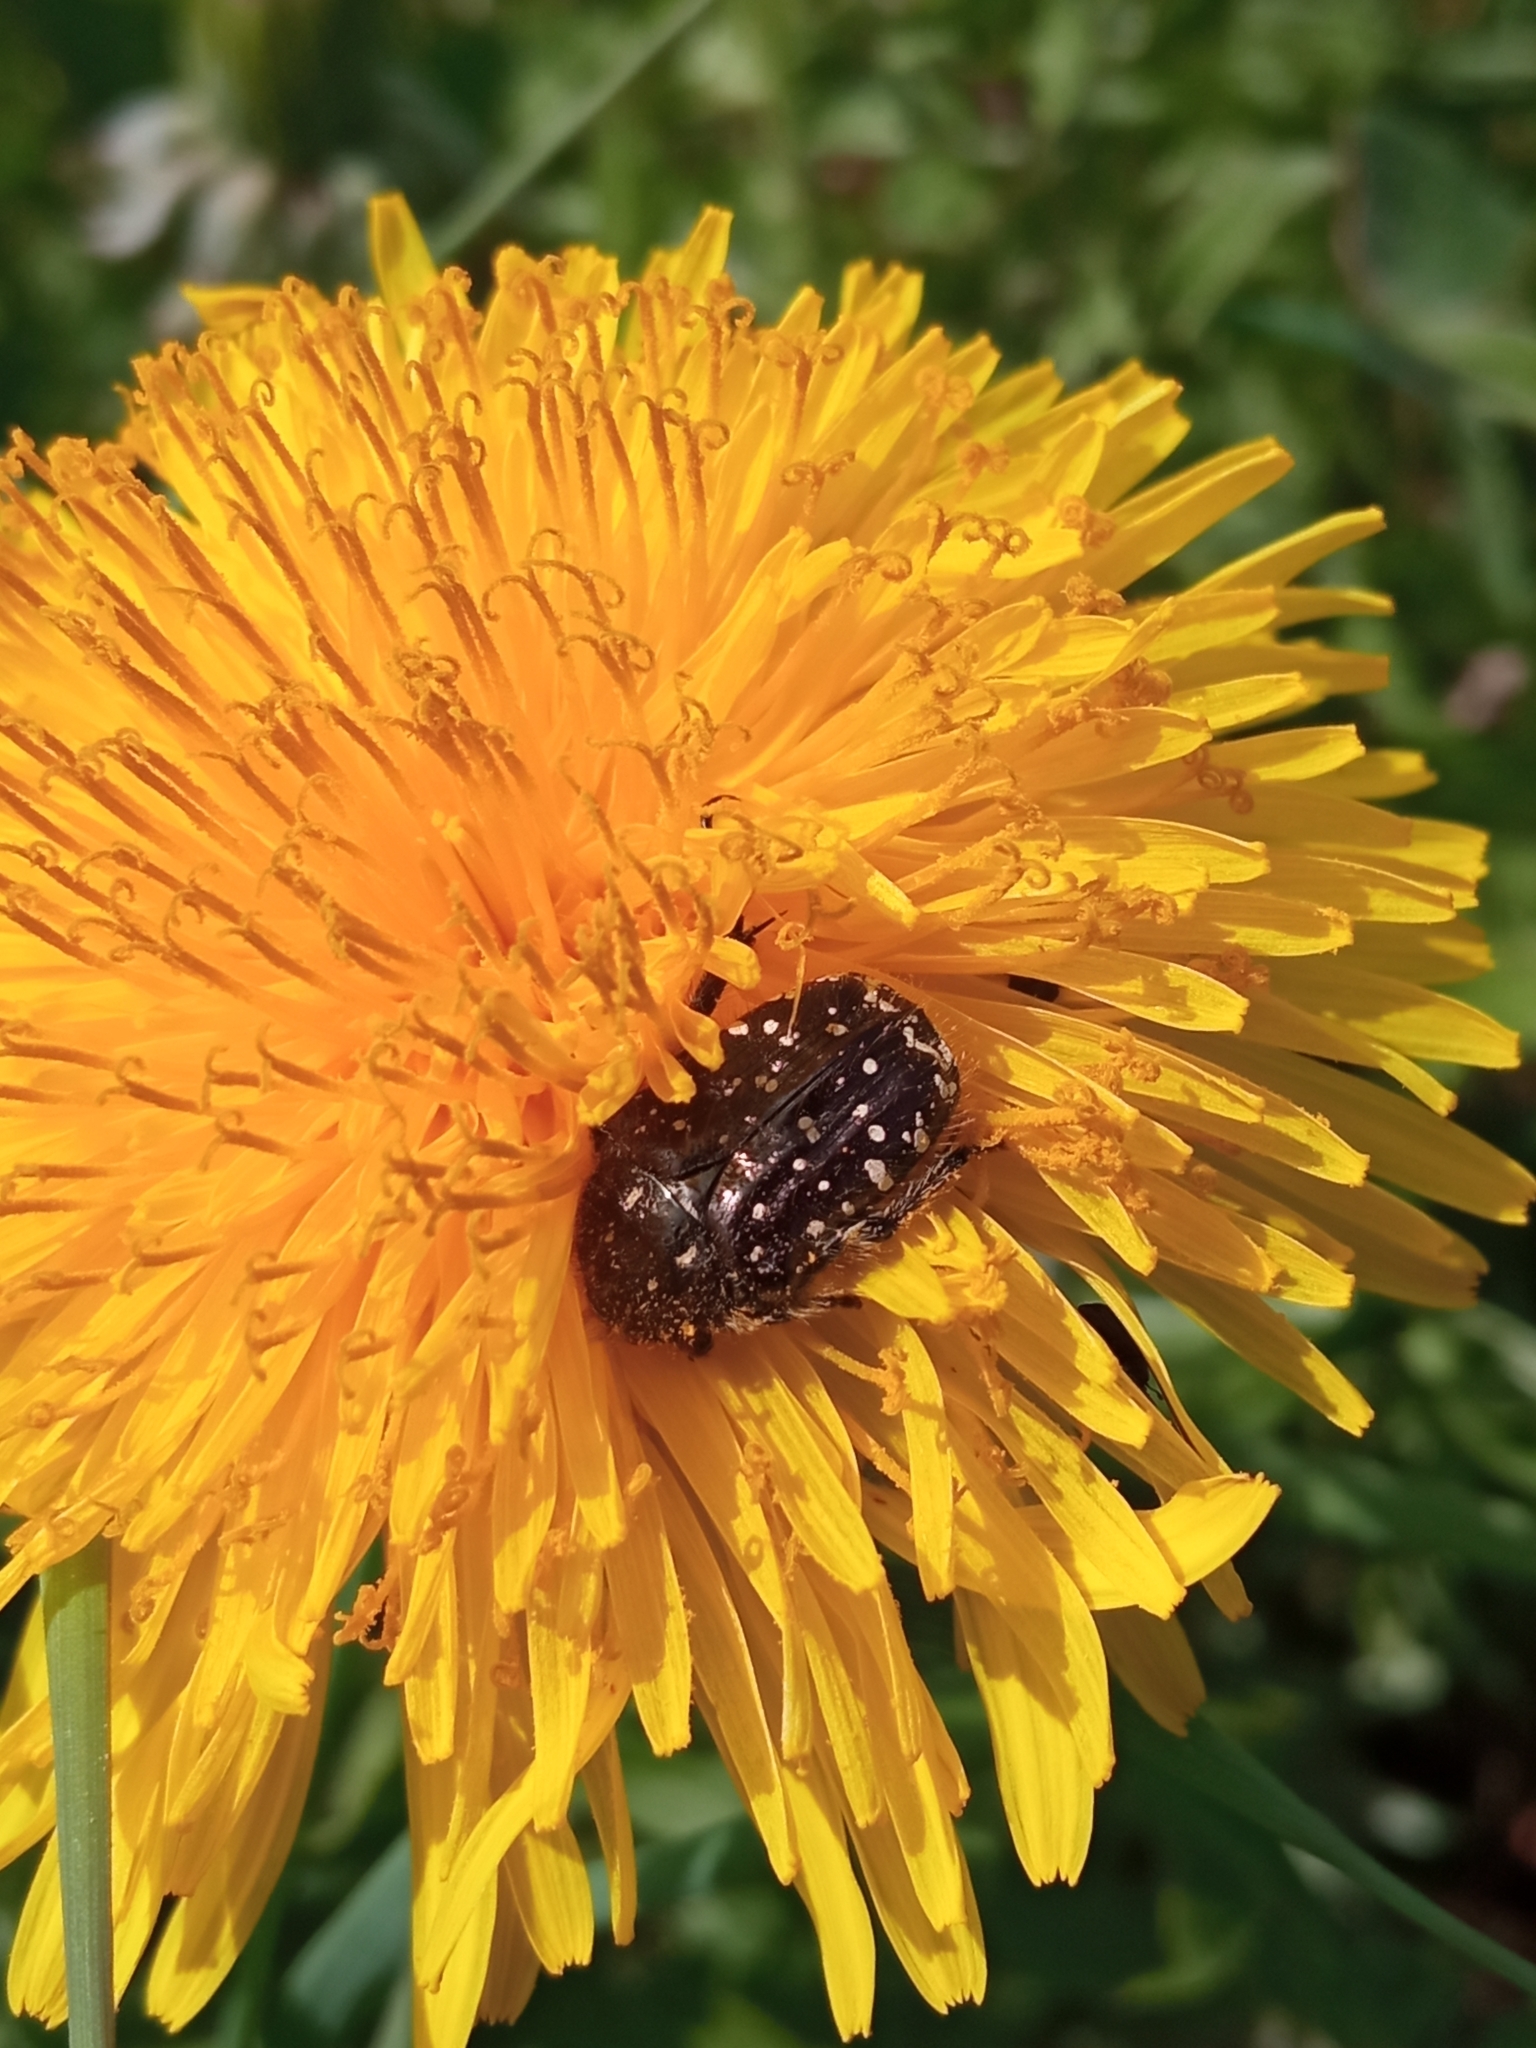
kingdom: Animalia
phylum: Arthropoda
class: Insecta
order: Coleoptera
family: Scarabaeidae
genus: Oxythyrea
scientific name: Oxythyrea funesta
